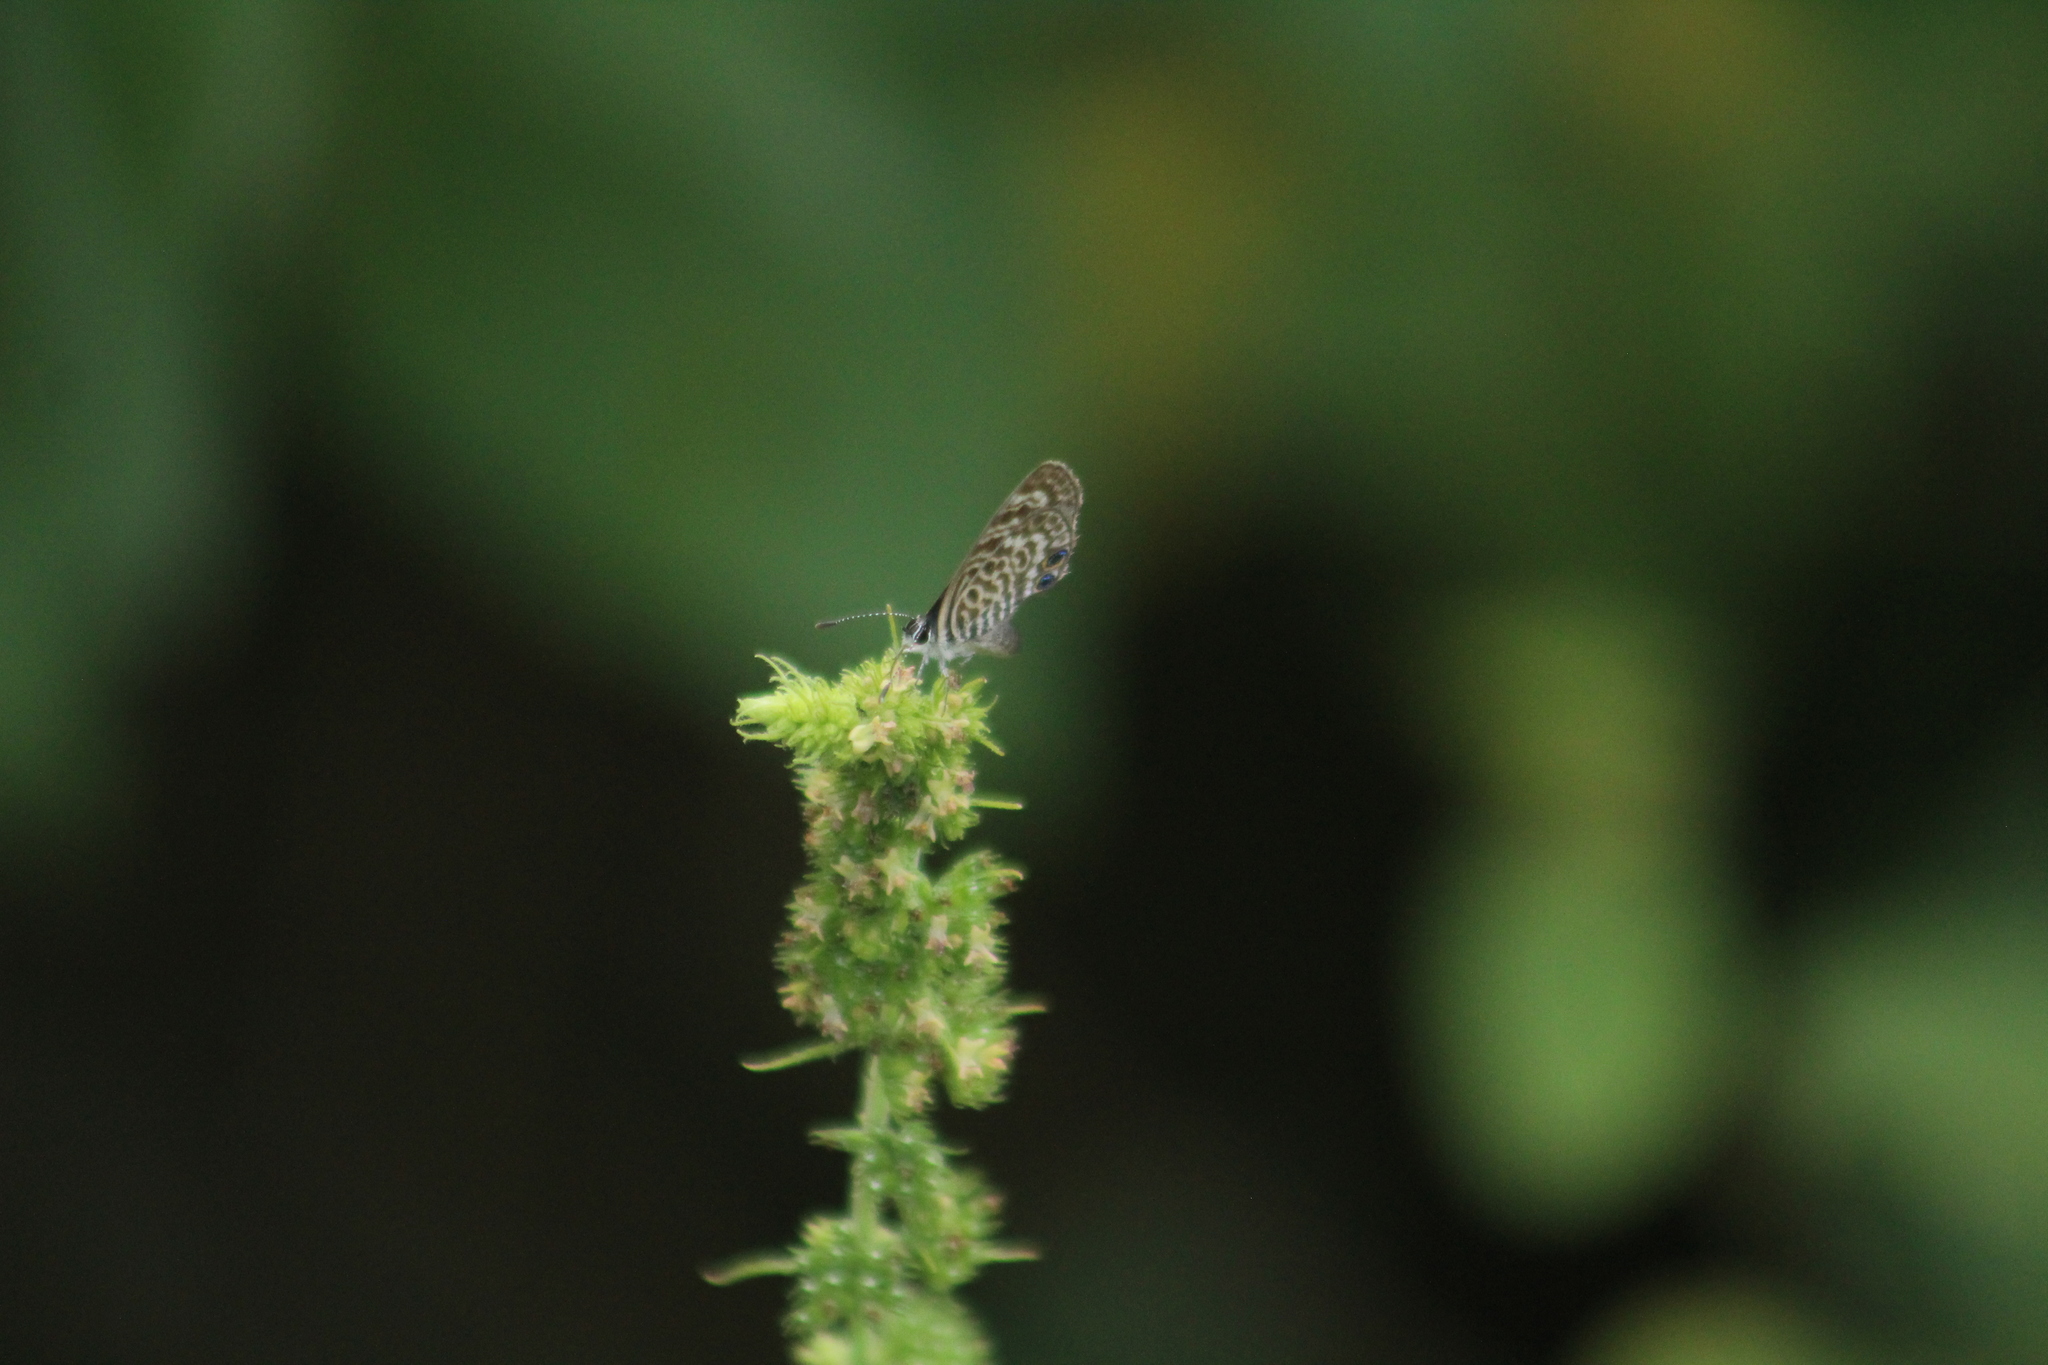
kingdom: Animalia
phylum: Arthropoda
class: Insecta
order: Lepidoptera
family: Lycaenidae
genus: Leptotes
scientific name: Leptotes cassius
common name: Cassius blue
